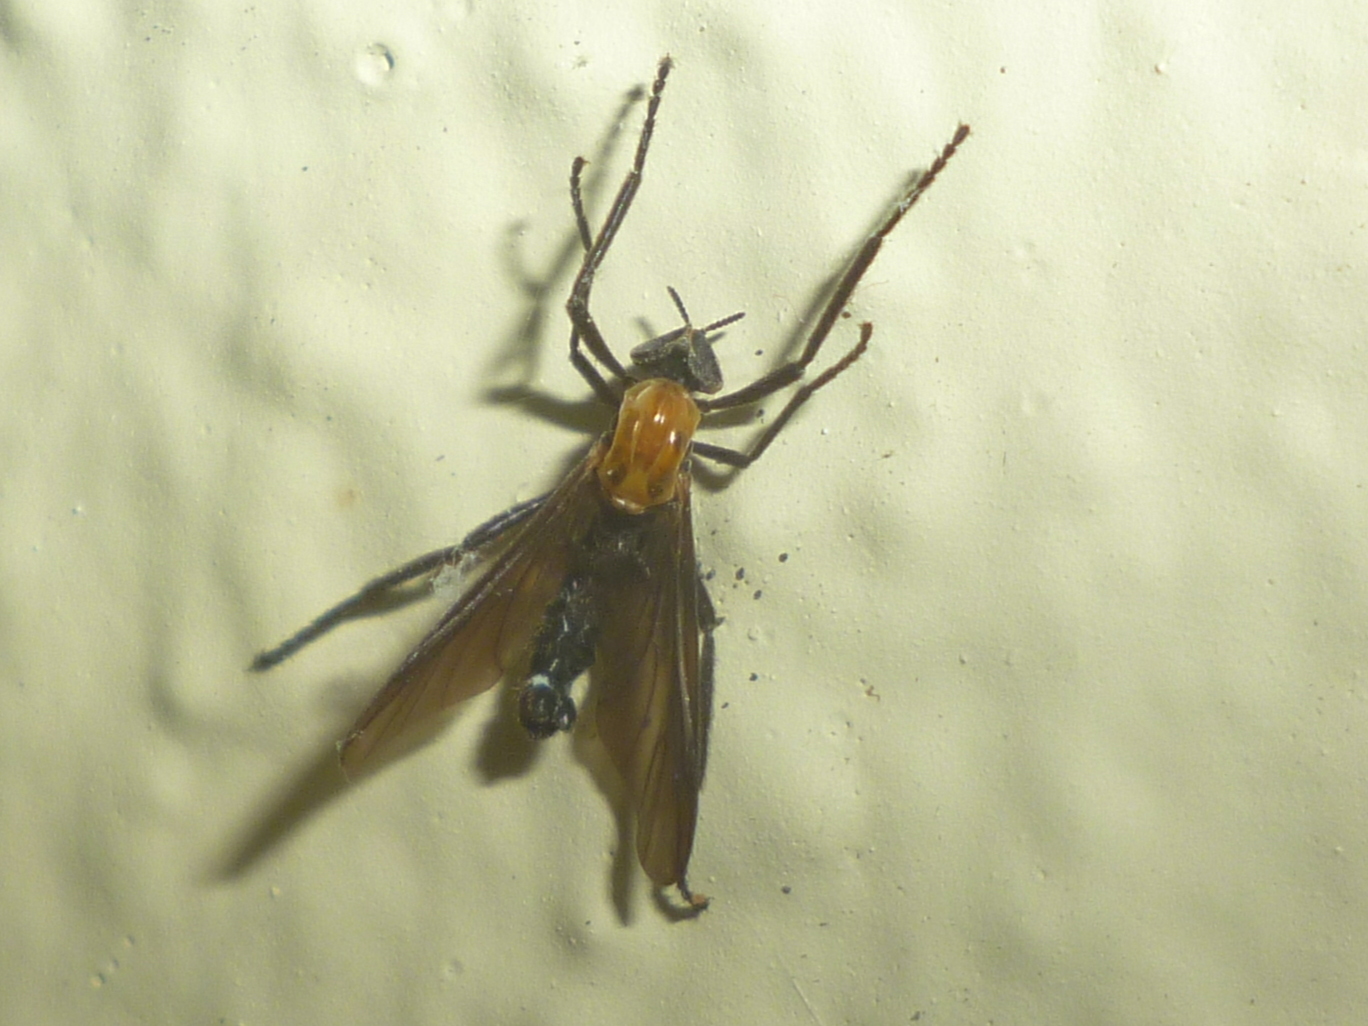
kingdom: Animalia
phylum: Arthropoda
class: Insecta
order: Diptera
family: Bibionidae
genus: Plecia
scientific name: Plecia nearctica
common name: March fly
